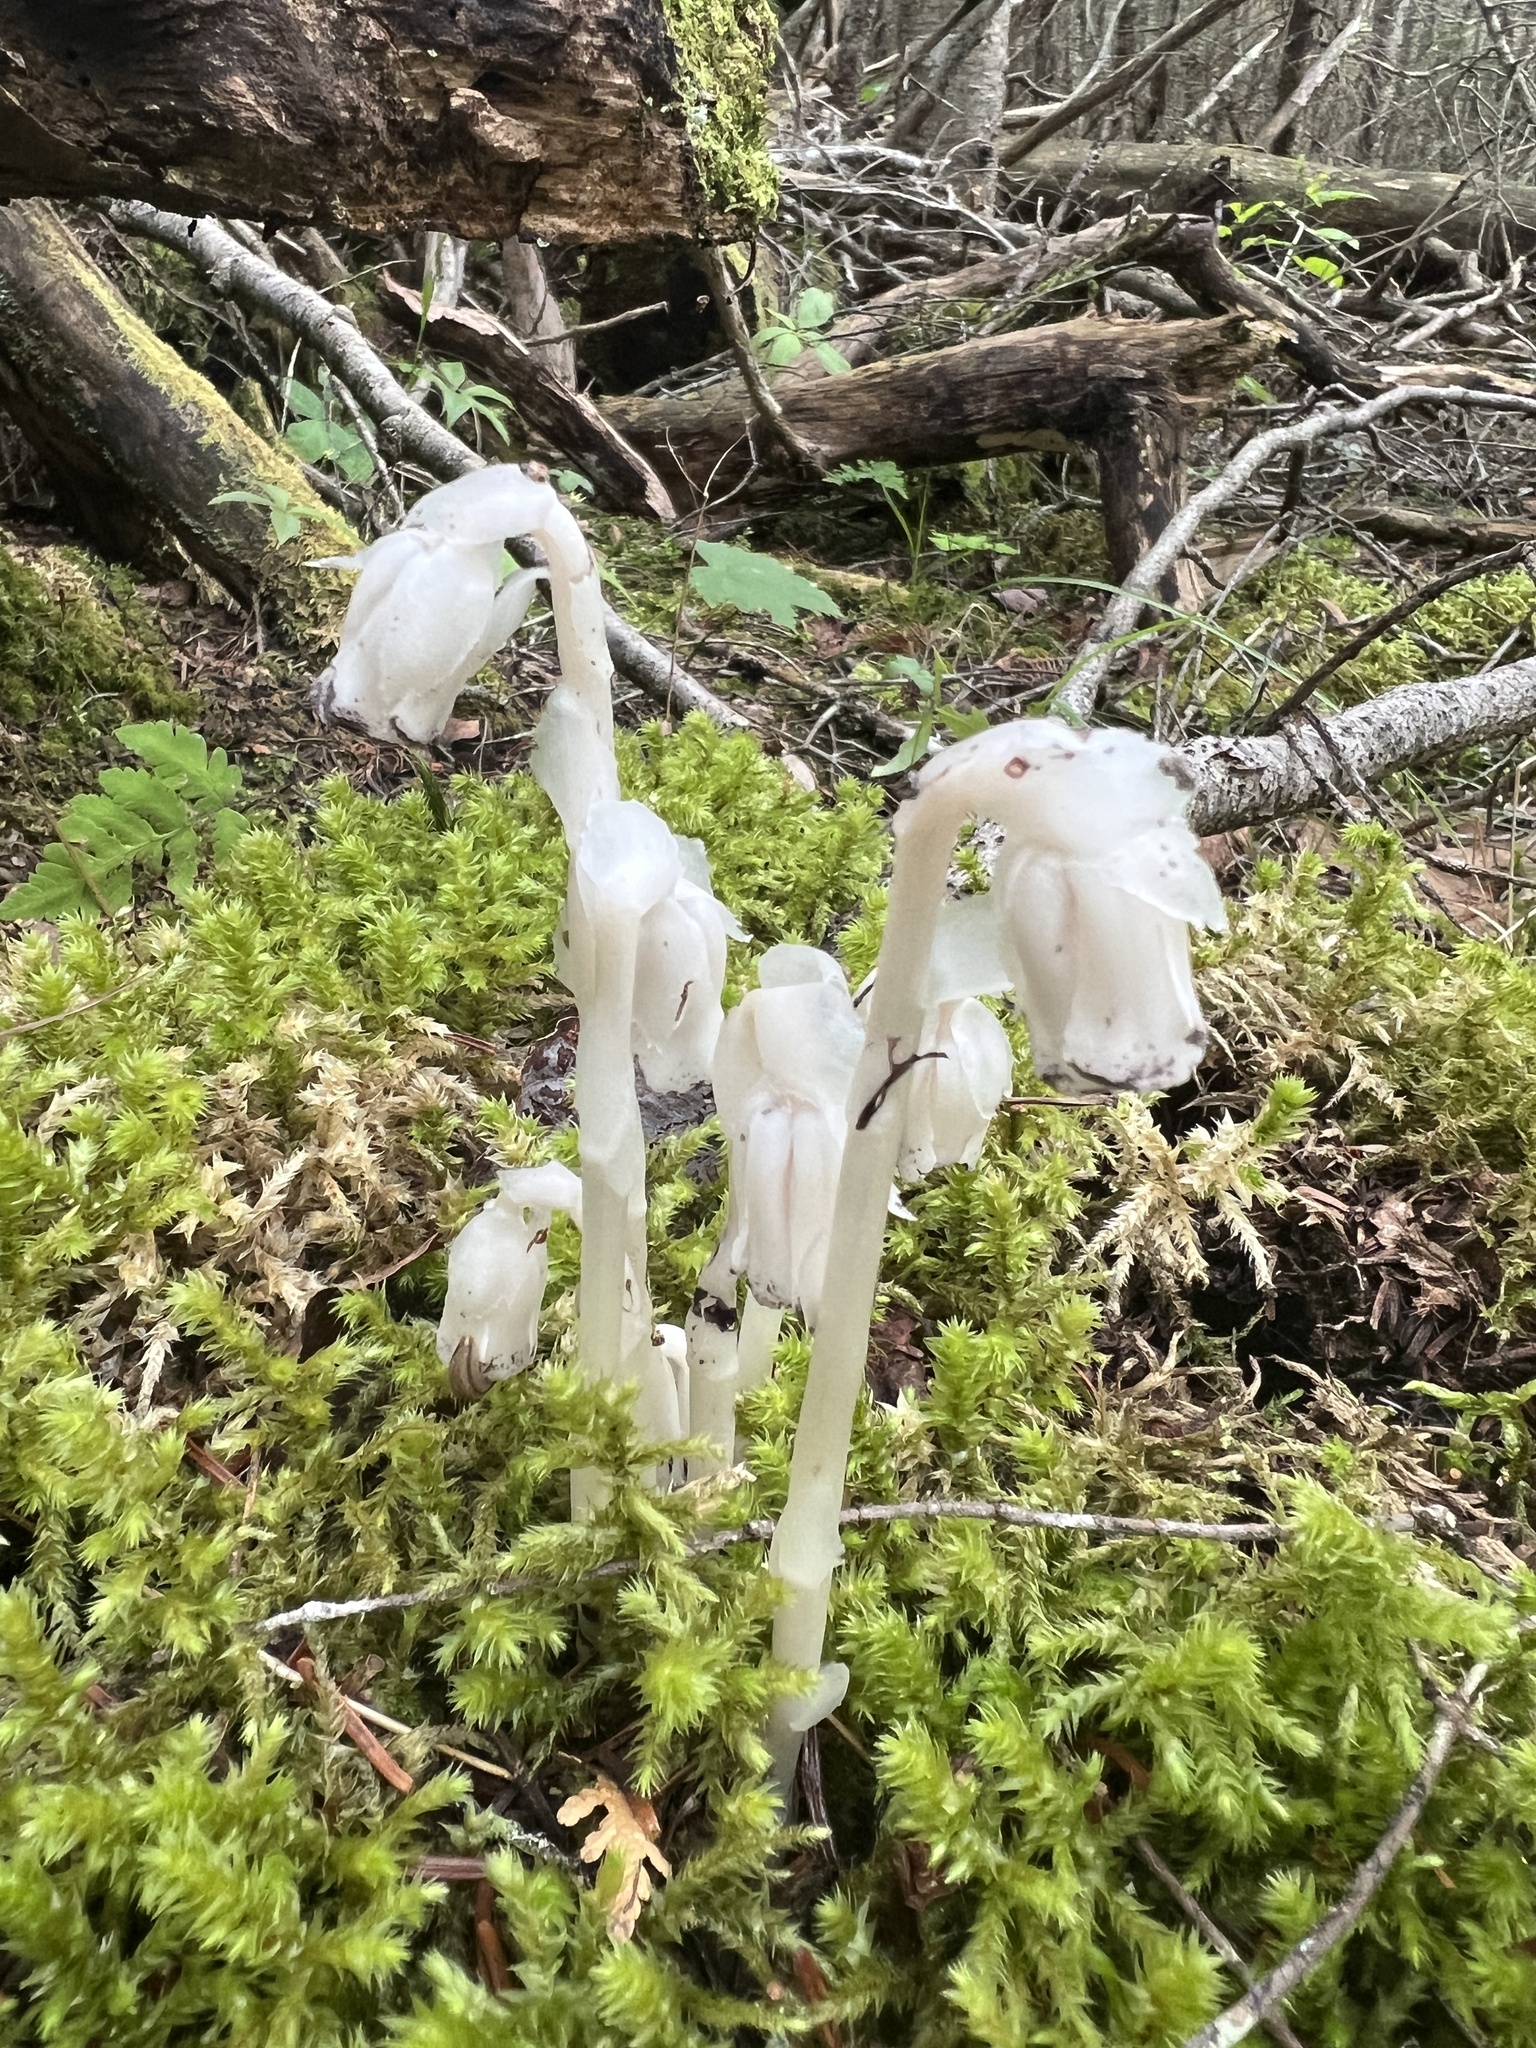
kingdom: Plantae
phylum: Tracheophyta
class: Magnoliopsida
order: Ericales
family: Ericaceae
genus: Monotropa
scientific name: Monotropa uniflora
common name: Convulsion root
